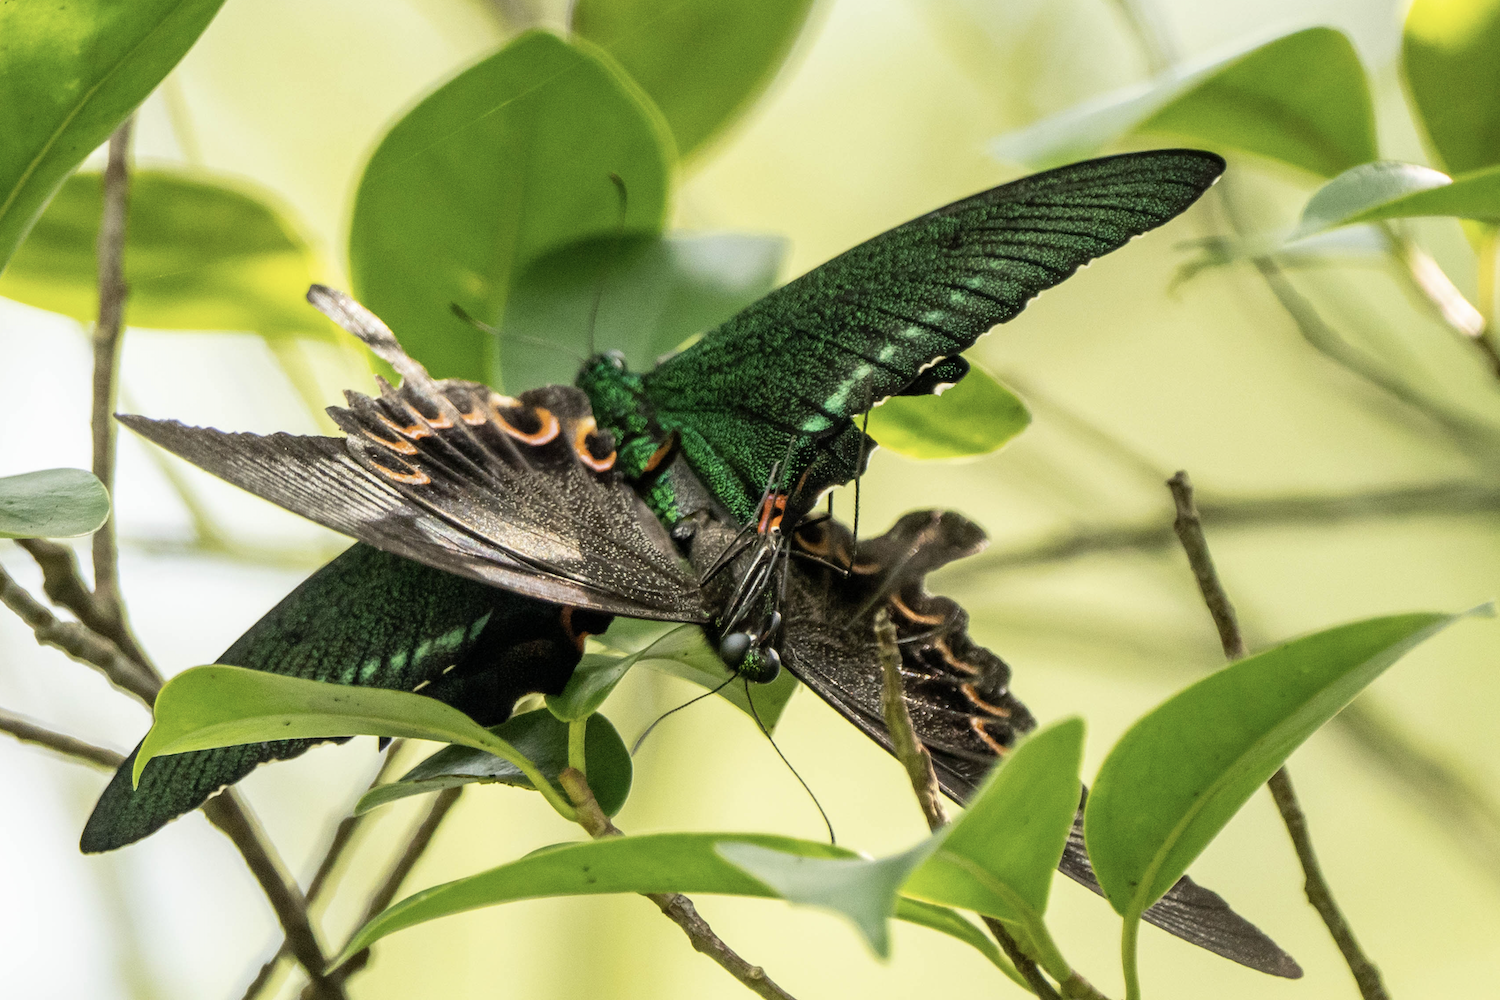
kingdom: Animalia
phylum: Arthropoda
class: Insecta
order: Lepidoptera
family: Papilionidae
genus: Papilio
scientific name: Papilio paris
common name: Paris peacock
